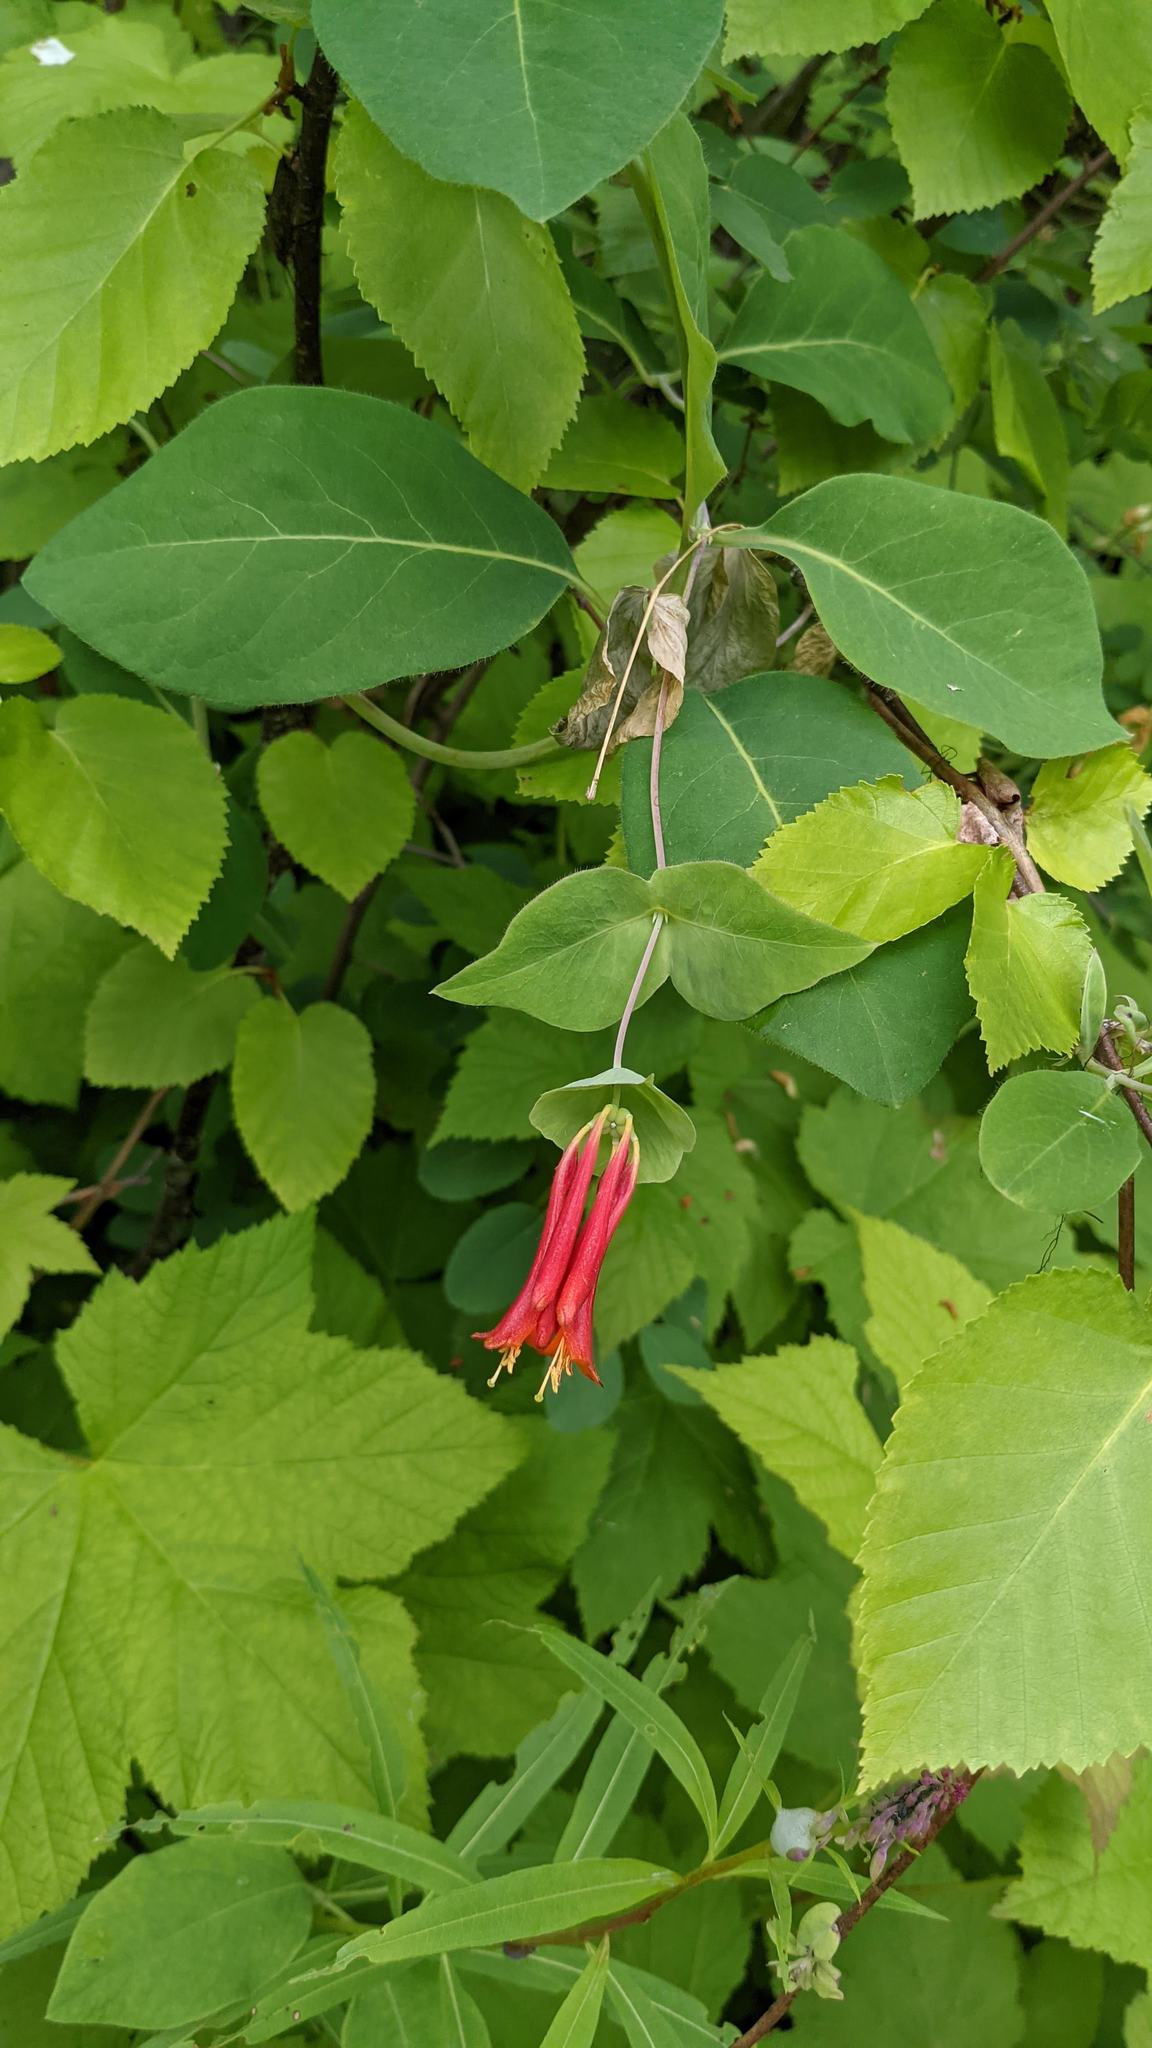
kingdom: Plantae
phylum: Tracheophyta
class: Magnoliopsida
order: Dipsacales
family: Caprifoliaceae
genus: Lonicera
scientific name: Lonicera ciliosa
